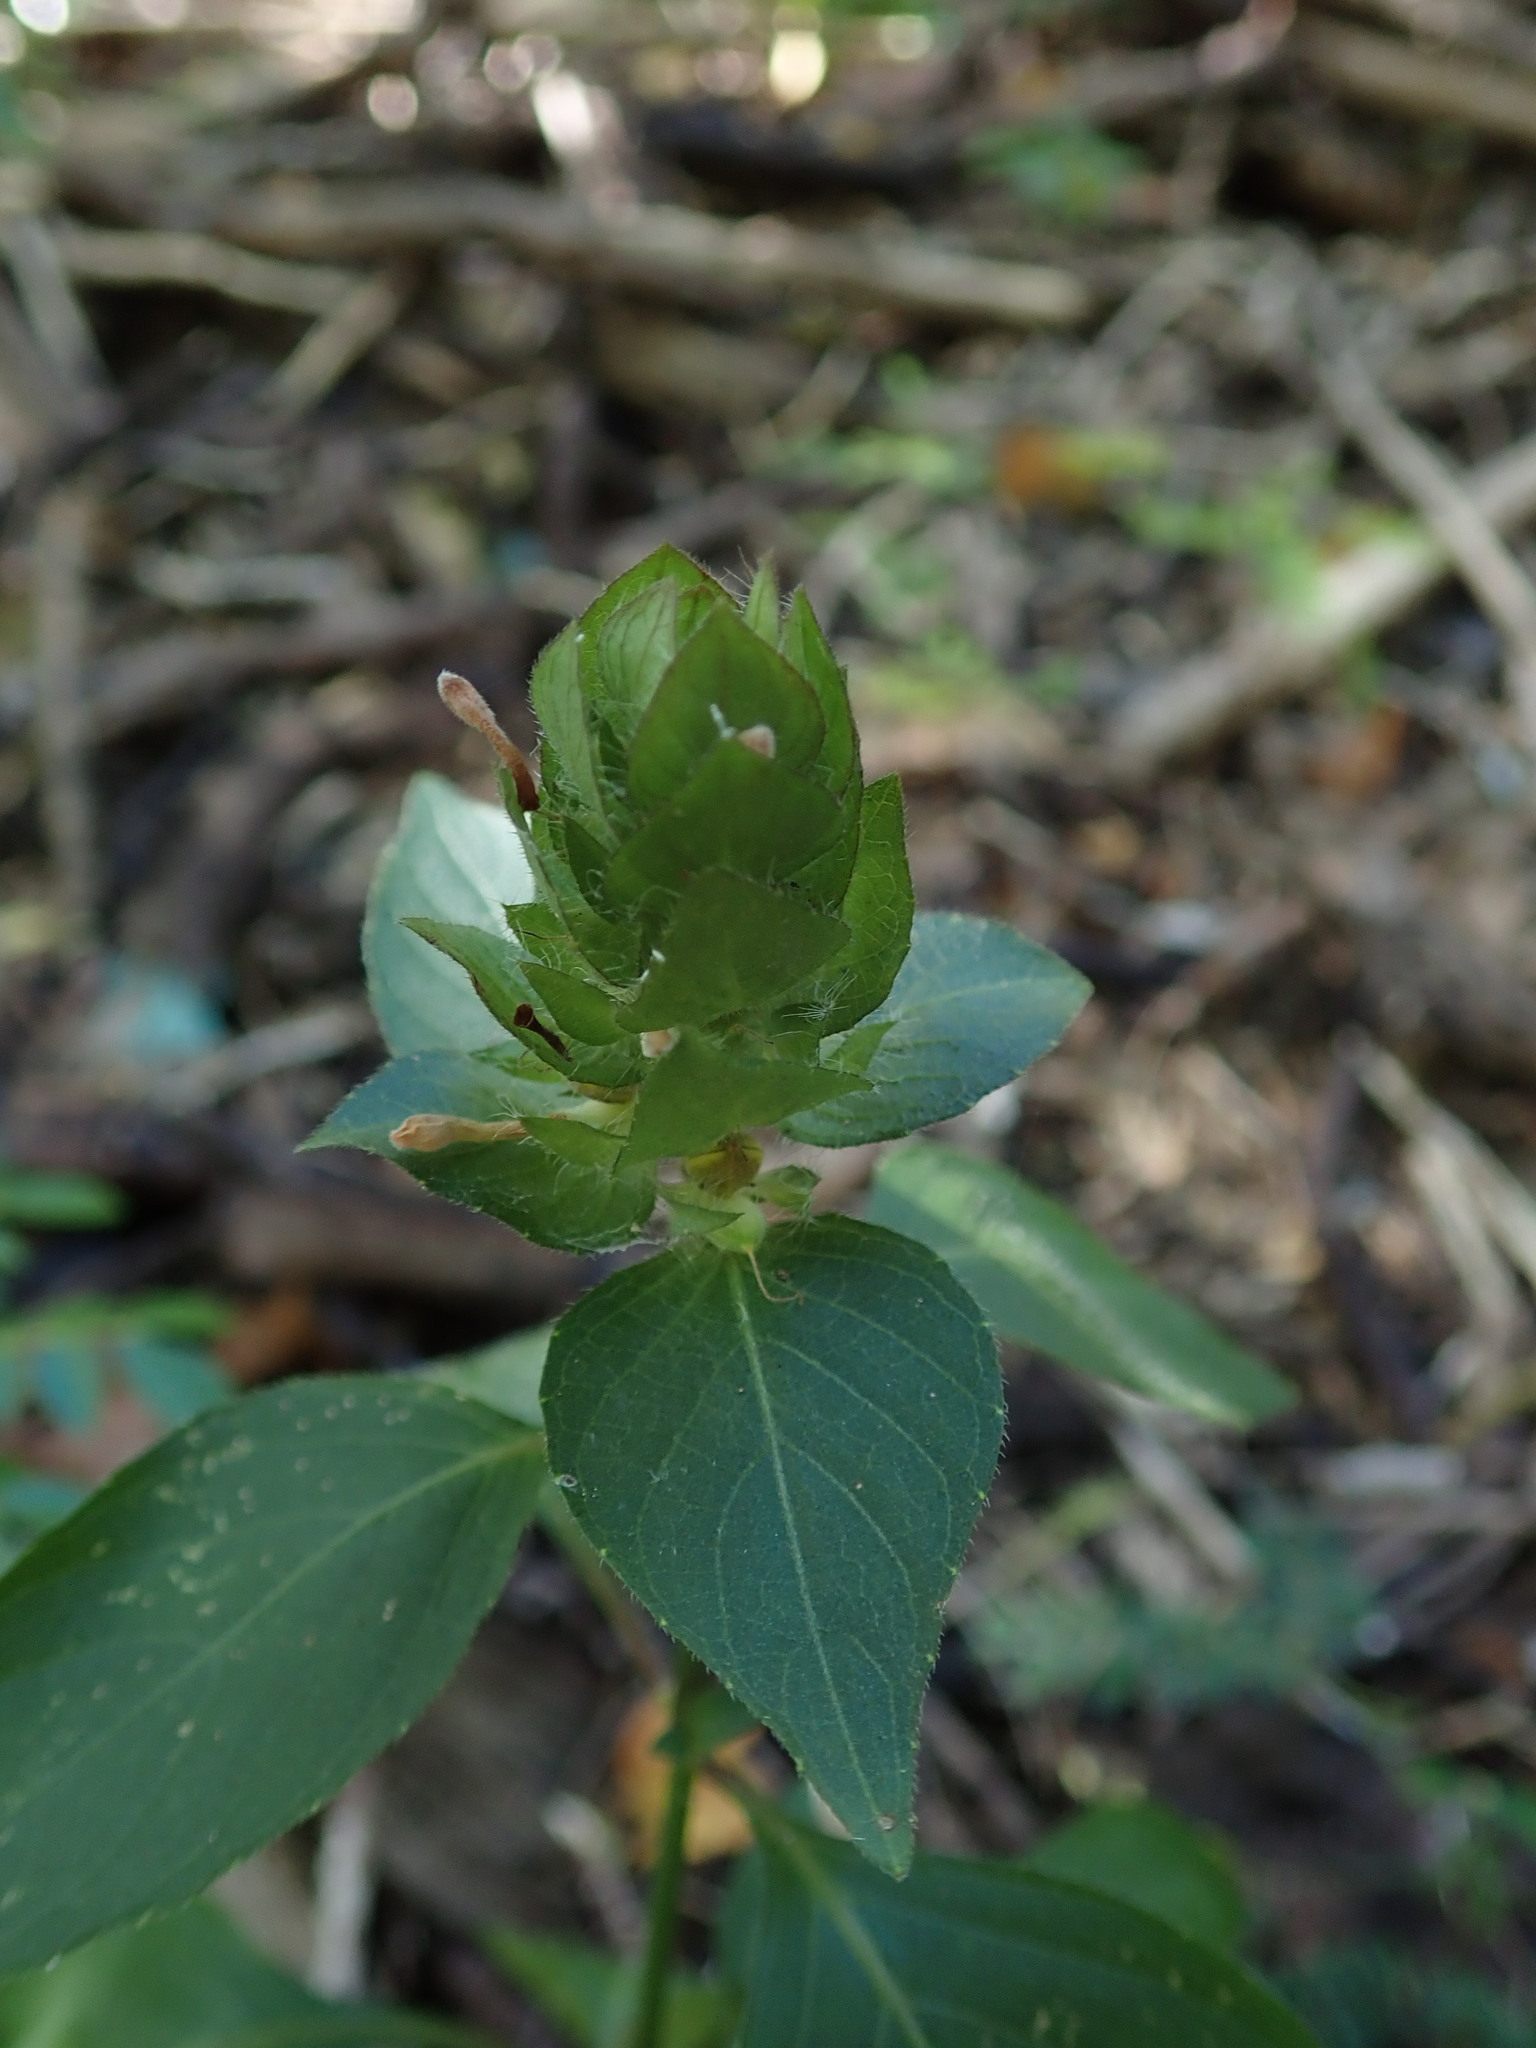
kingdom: Plantae
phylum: Tracheophyta
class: Magnoliopsida
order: Lamiales
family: Acanthaceae
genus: Ruellia
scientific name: Ruellia blechum
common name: Browne's blechum
